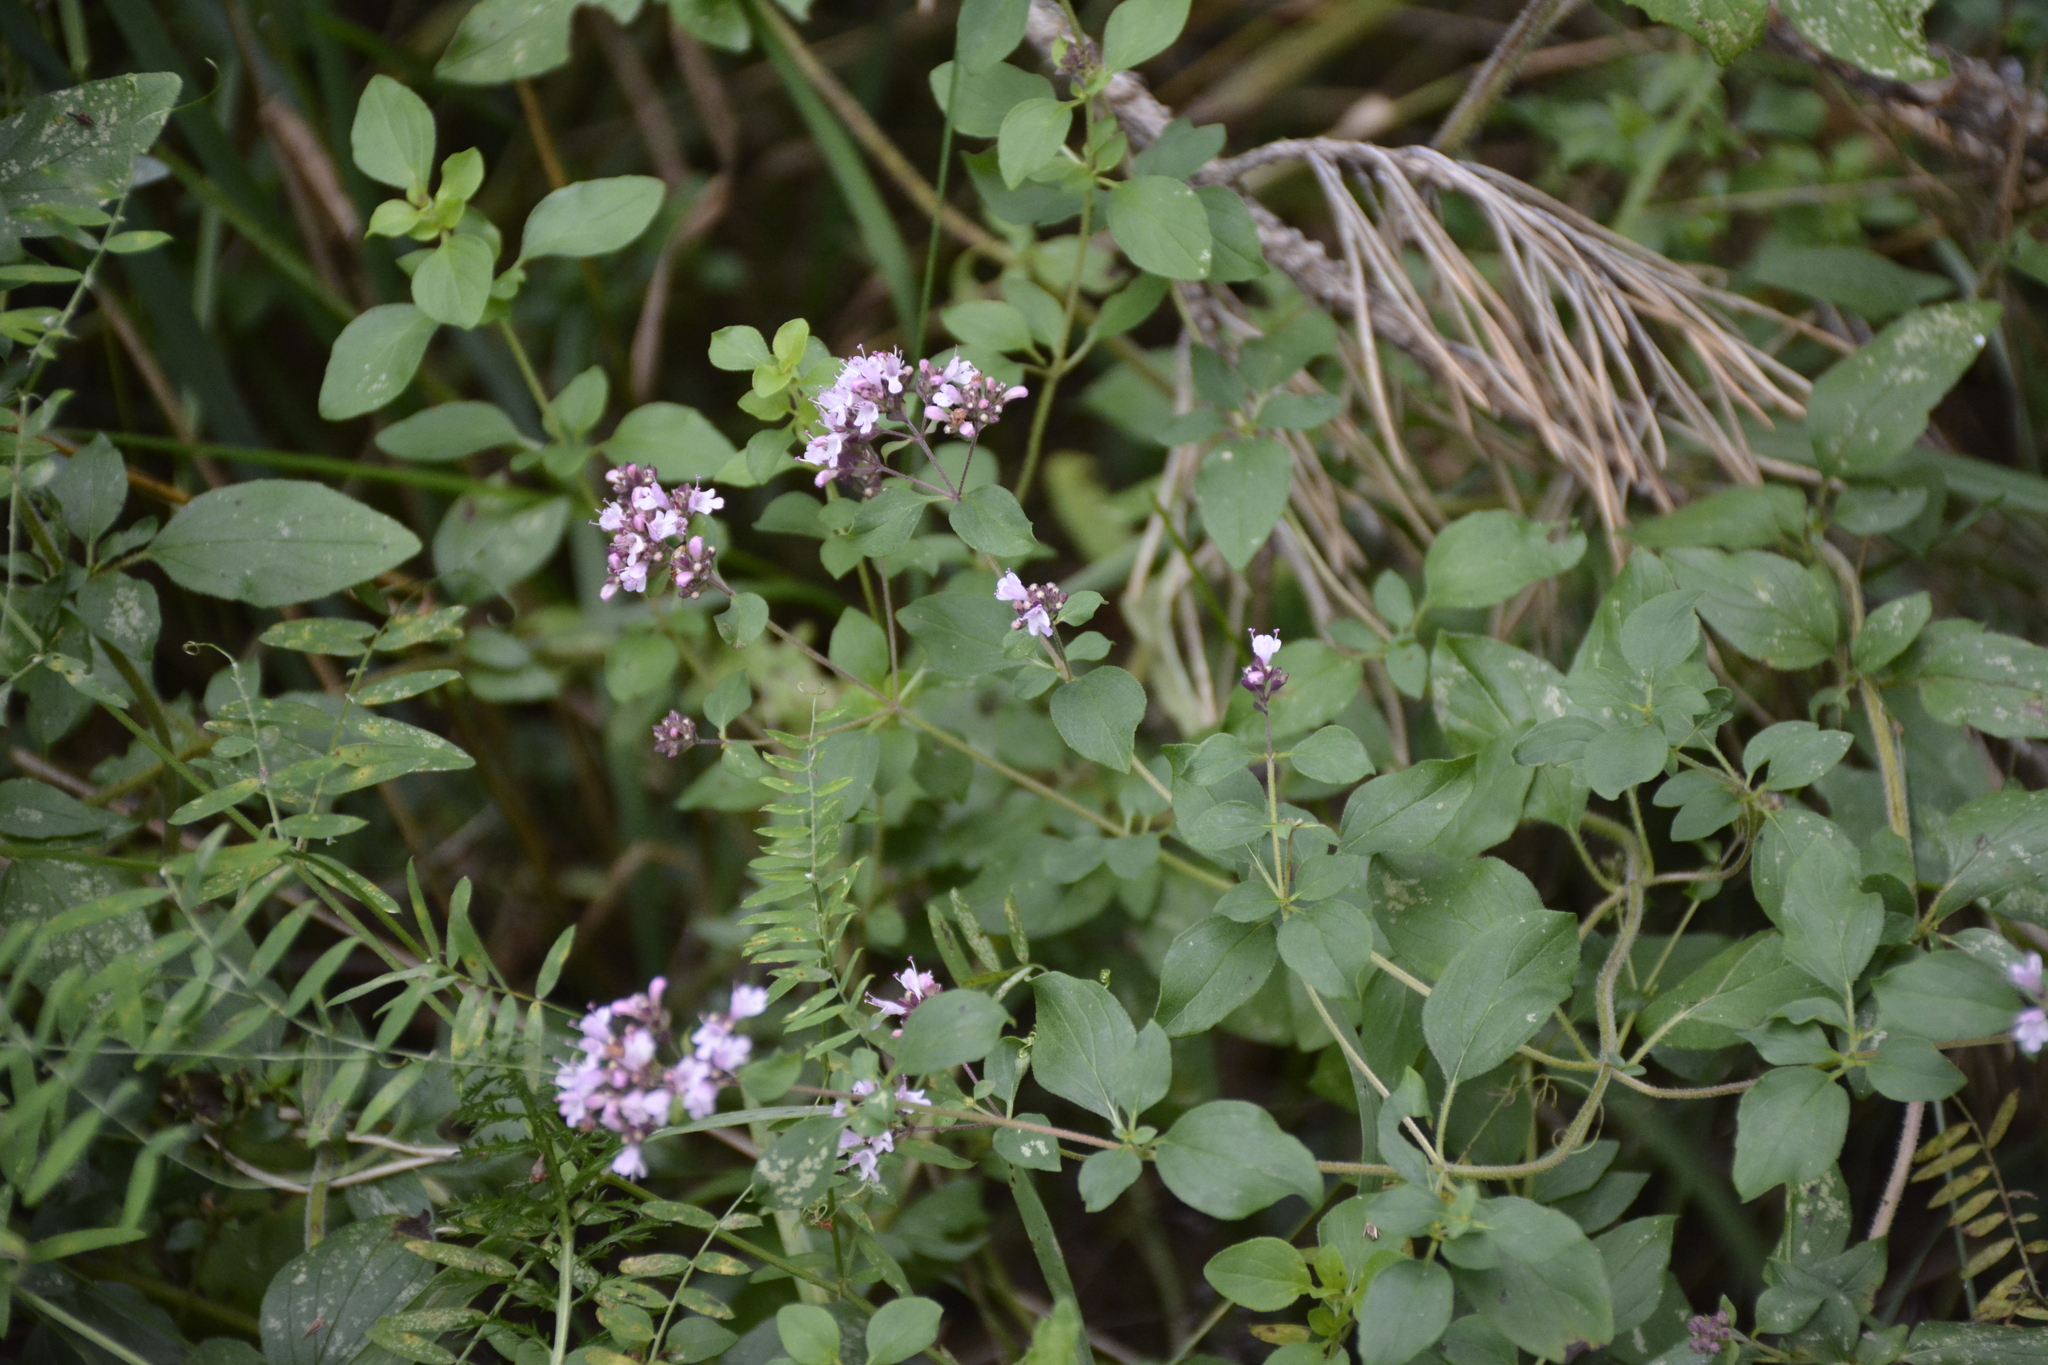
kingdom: Plantae
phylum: Tracheophyta
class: Magnoliopsida
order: Lamiales
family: Lamiaceae
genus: Origanum
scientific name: Origanum vulgare
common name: Wild marjoram
